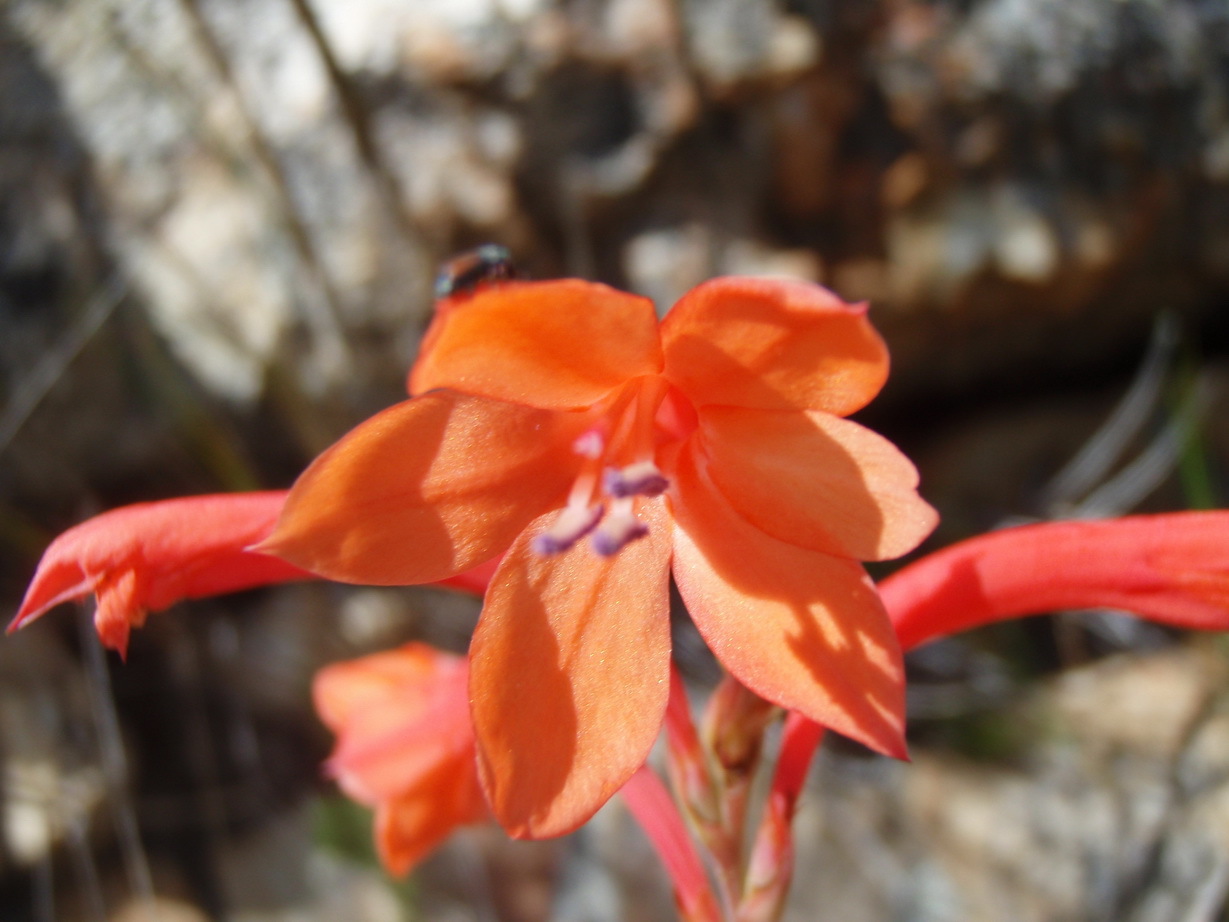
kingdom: Plantae
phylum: Tracheophyta
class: Liliopsida
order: Asparagales
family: Iridaceae
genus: Watsonia
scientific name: Watsonia pillansii
